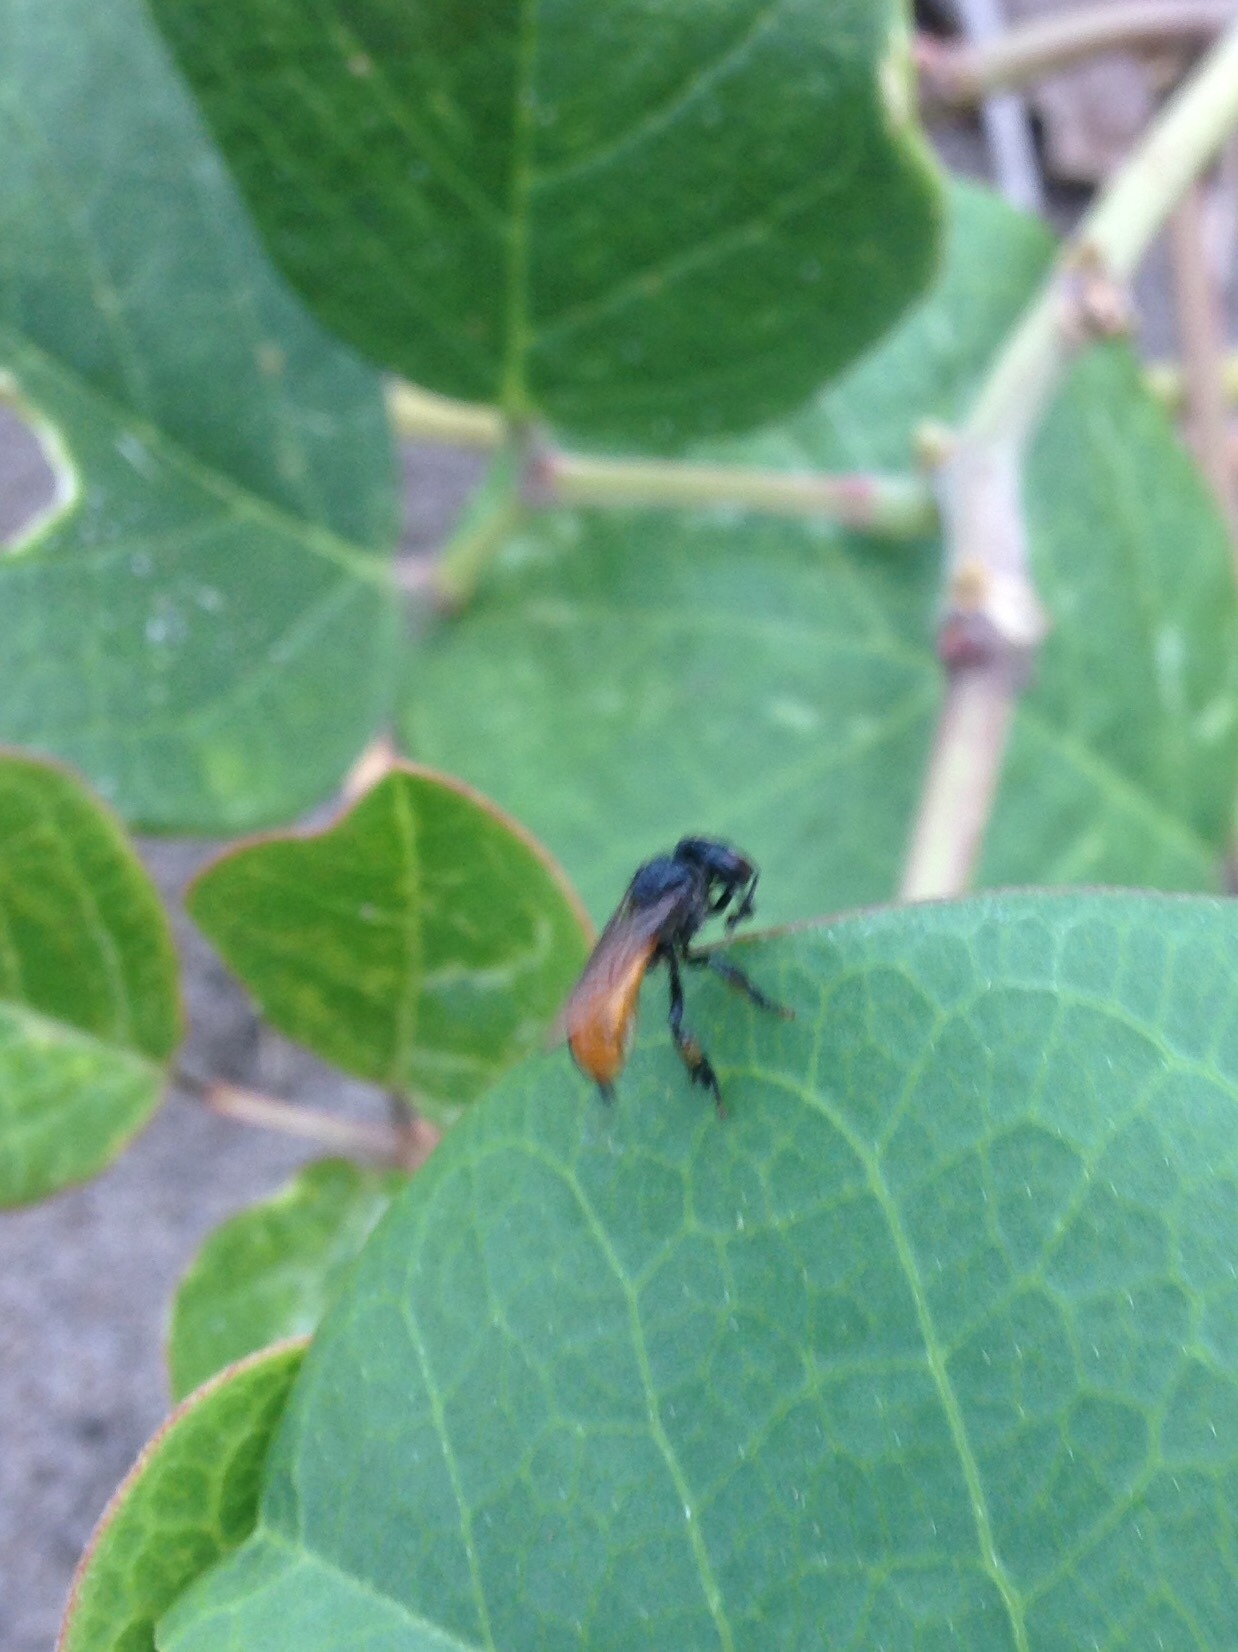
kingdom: Animalia
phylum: Arthropoda
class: Insecta
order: Hymenoptera
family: Apidae
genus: Trigona
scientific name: Trigona fulviventris
